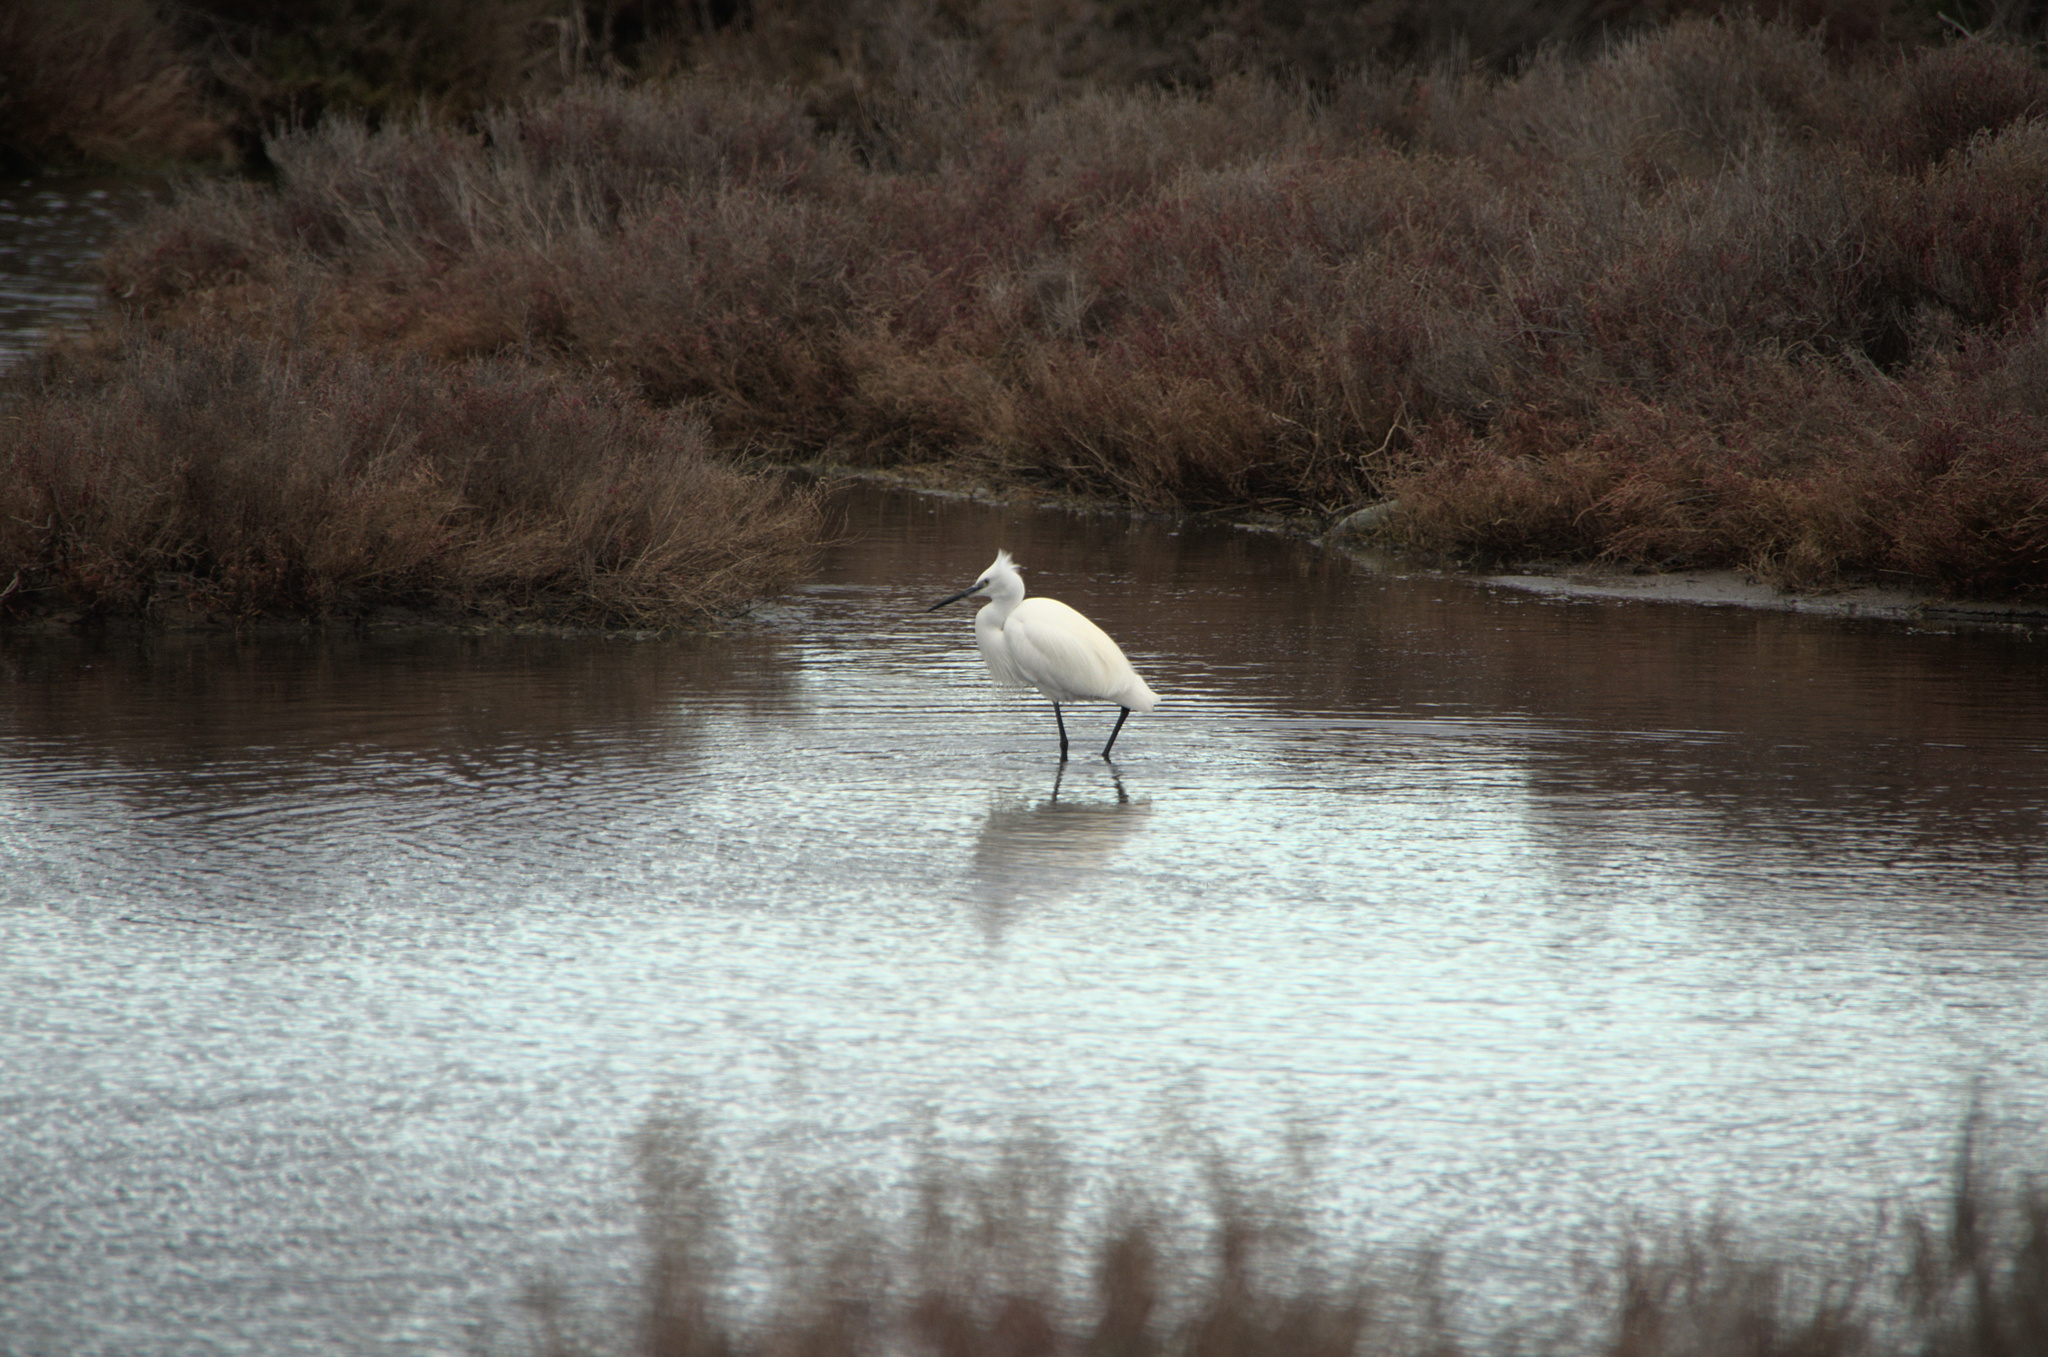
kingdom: Animalia
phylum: Chordata
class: Aves
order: Pelecaniformes
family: Ardeidae
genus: Egretta
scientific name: Egretta garzetta
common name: Little egret
